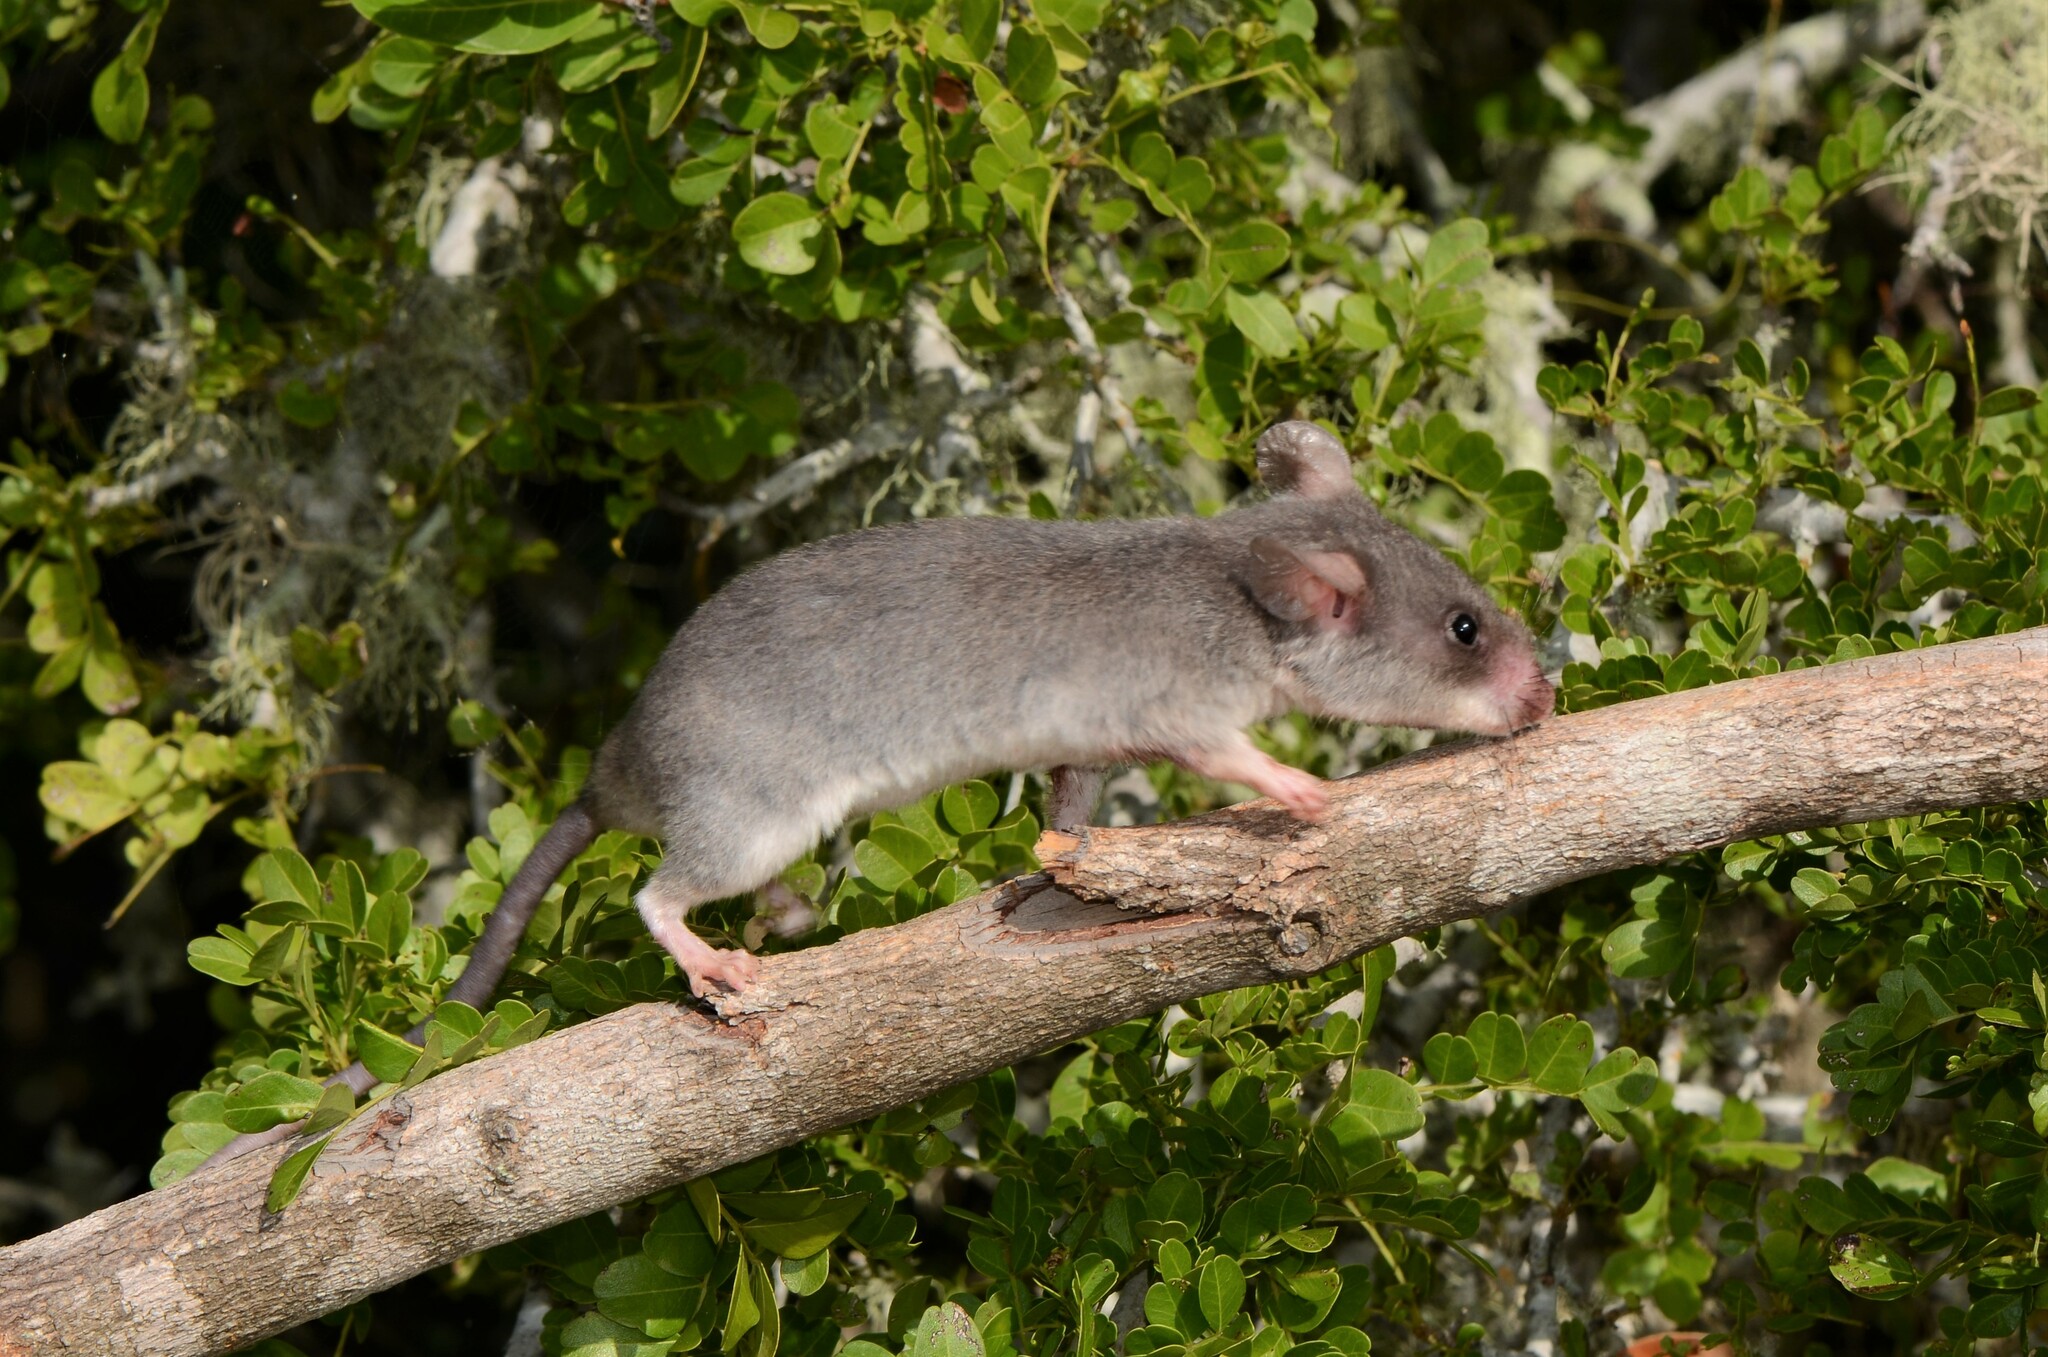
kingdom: Animalia
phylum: Chordata
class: Mammalia
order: Rodentia
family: Nesomyidae
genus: Beamys
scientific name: Beamys hindei
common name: Lesser hamster-rat, long-tailed pouched rat
